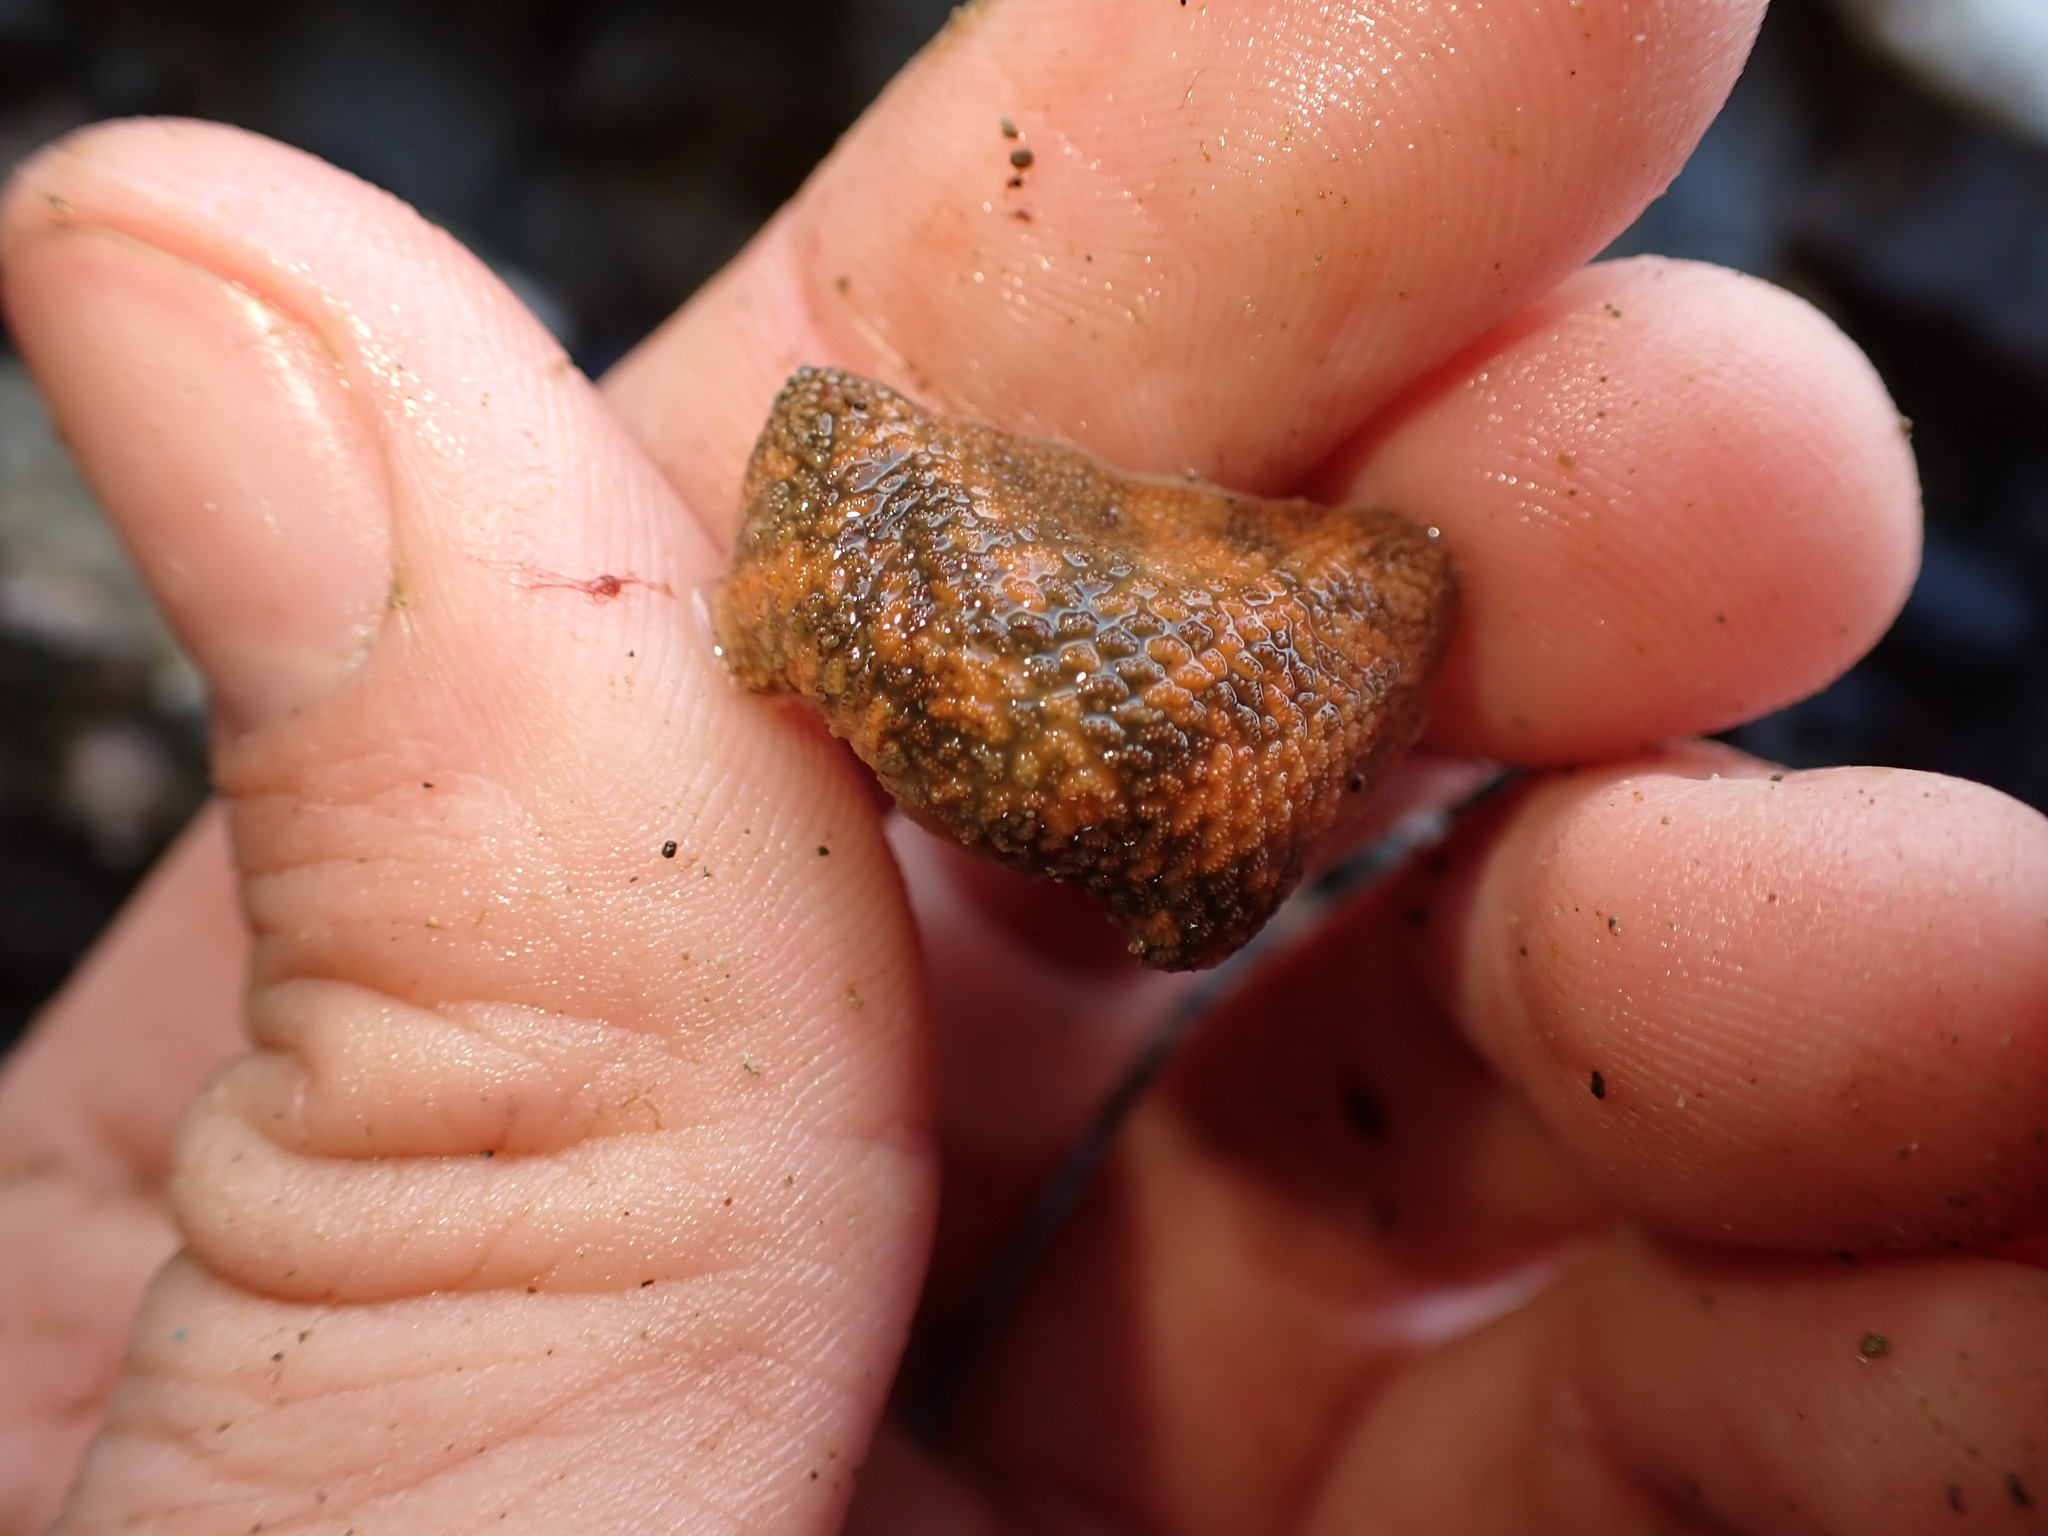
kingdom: Animalia
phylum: Echinodermata
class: Asteroidea
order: Valvatida
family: Asterinidae
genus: Patiriella
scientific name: Patiriella regularis
